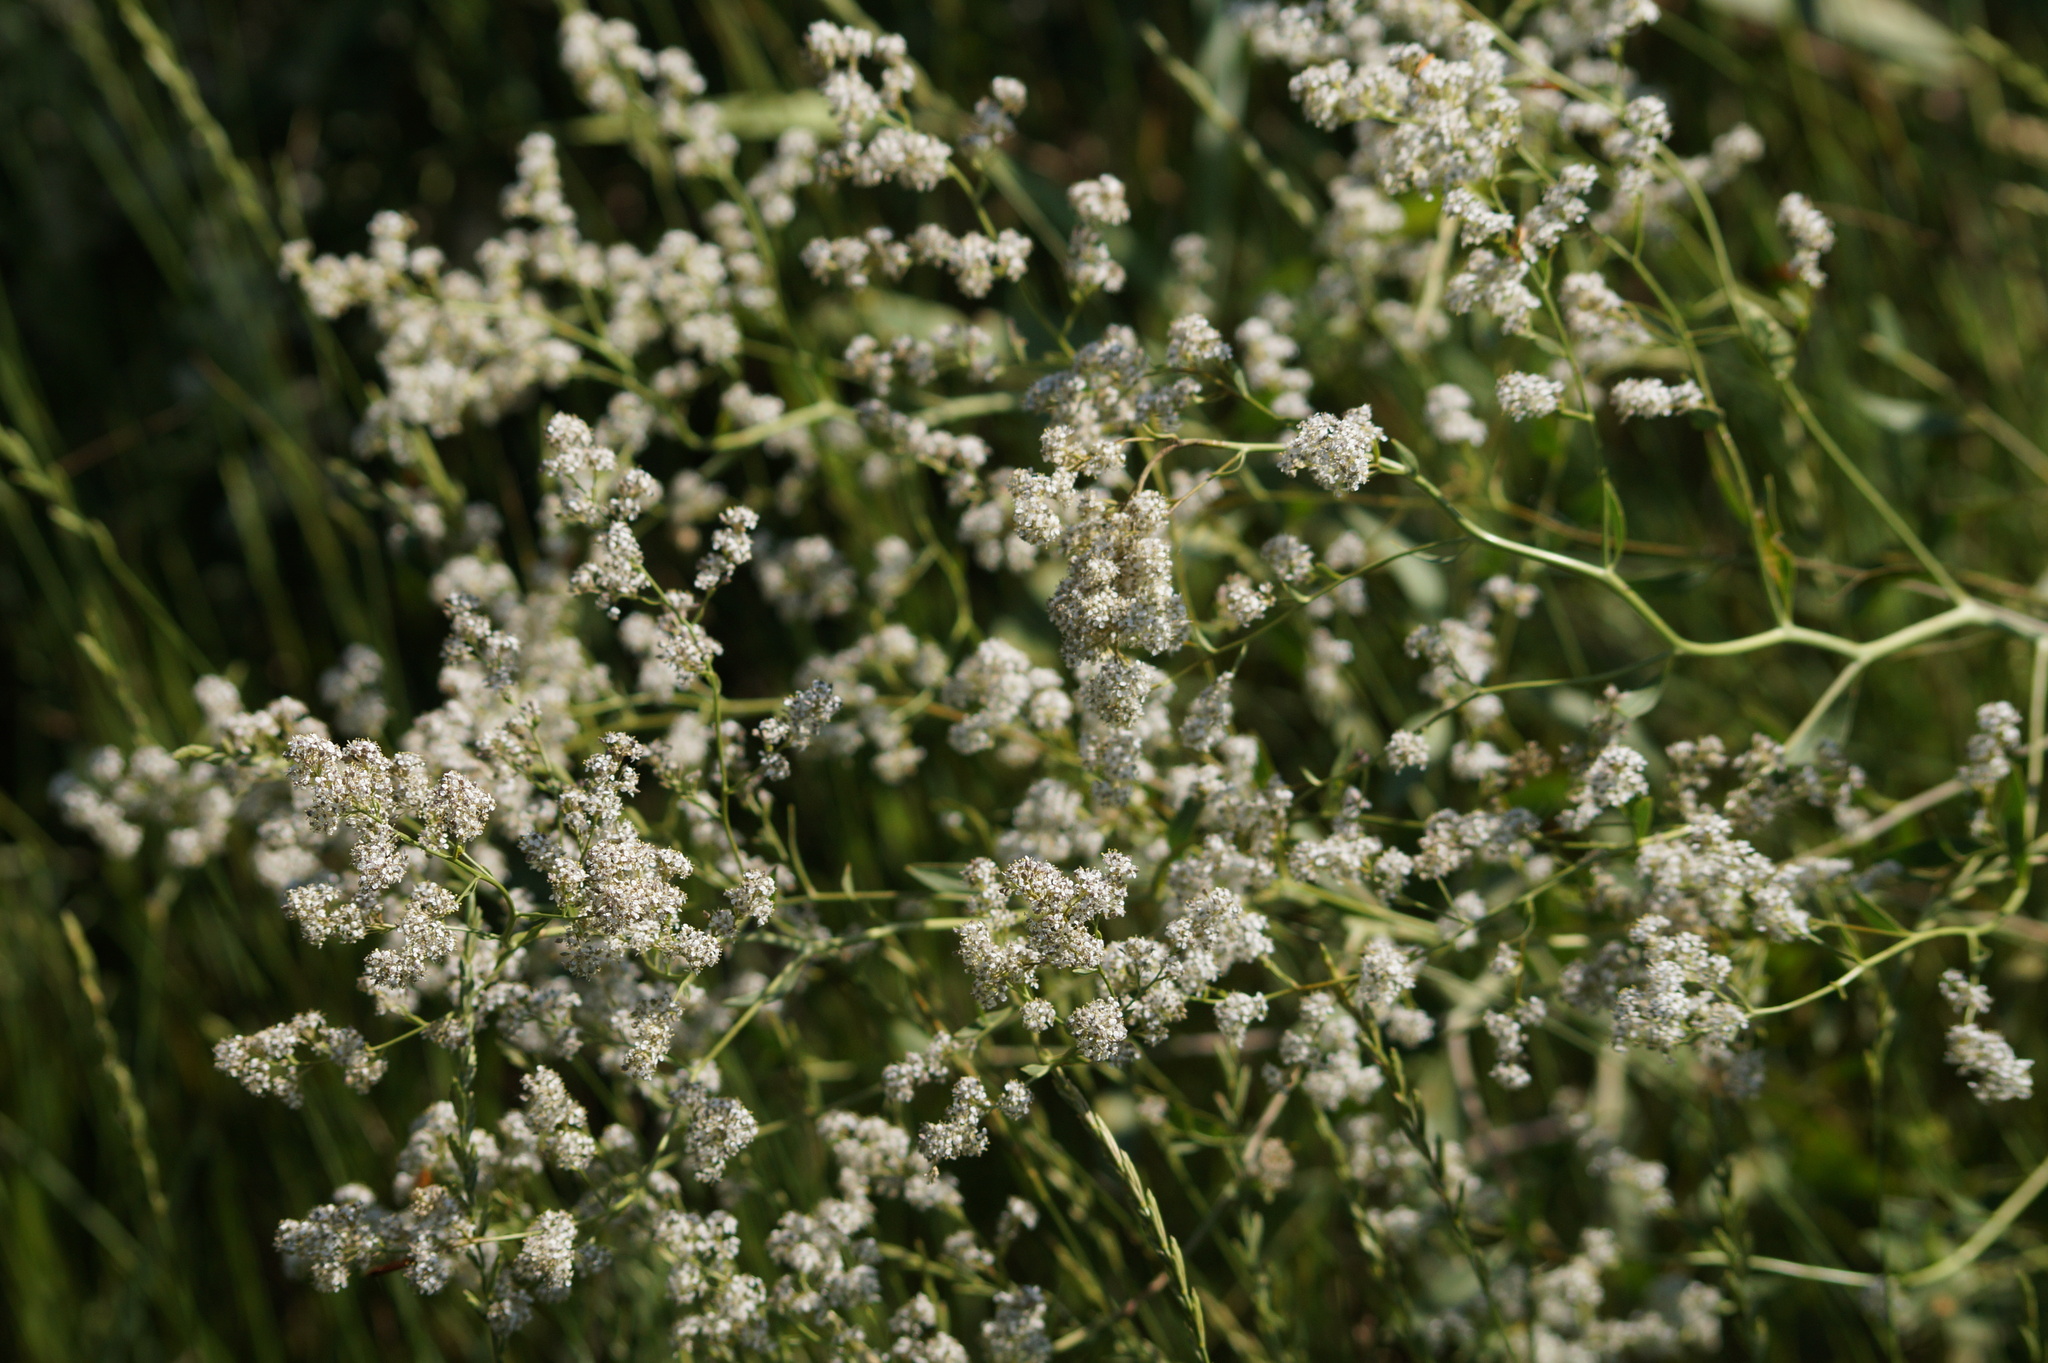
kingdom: Plantae
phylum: Tracheophyta
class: Magnoliopsida
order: Brassicales
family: Brassicaceae
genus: Lepidium
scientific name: Lepidium latifolium
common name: Dittander
